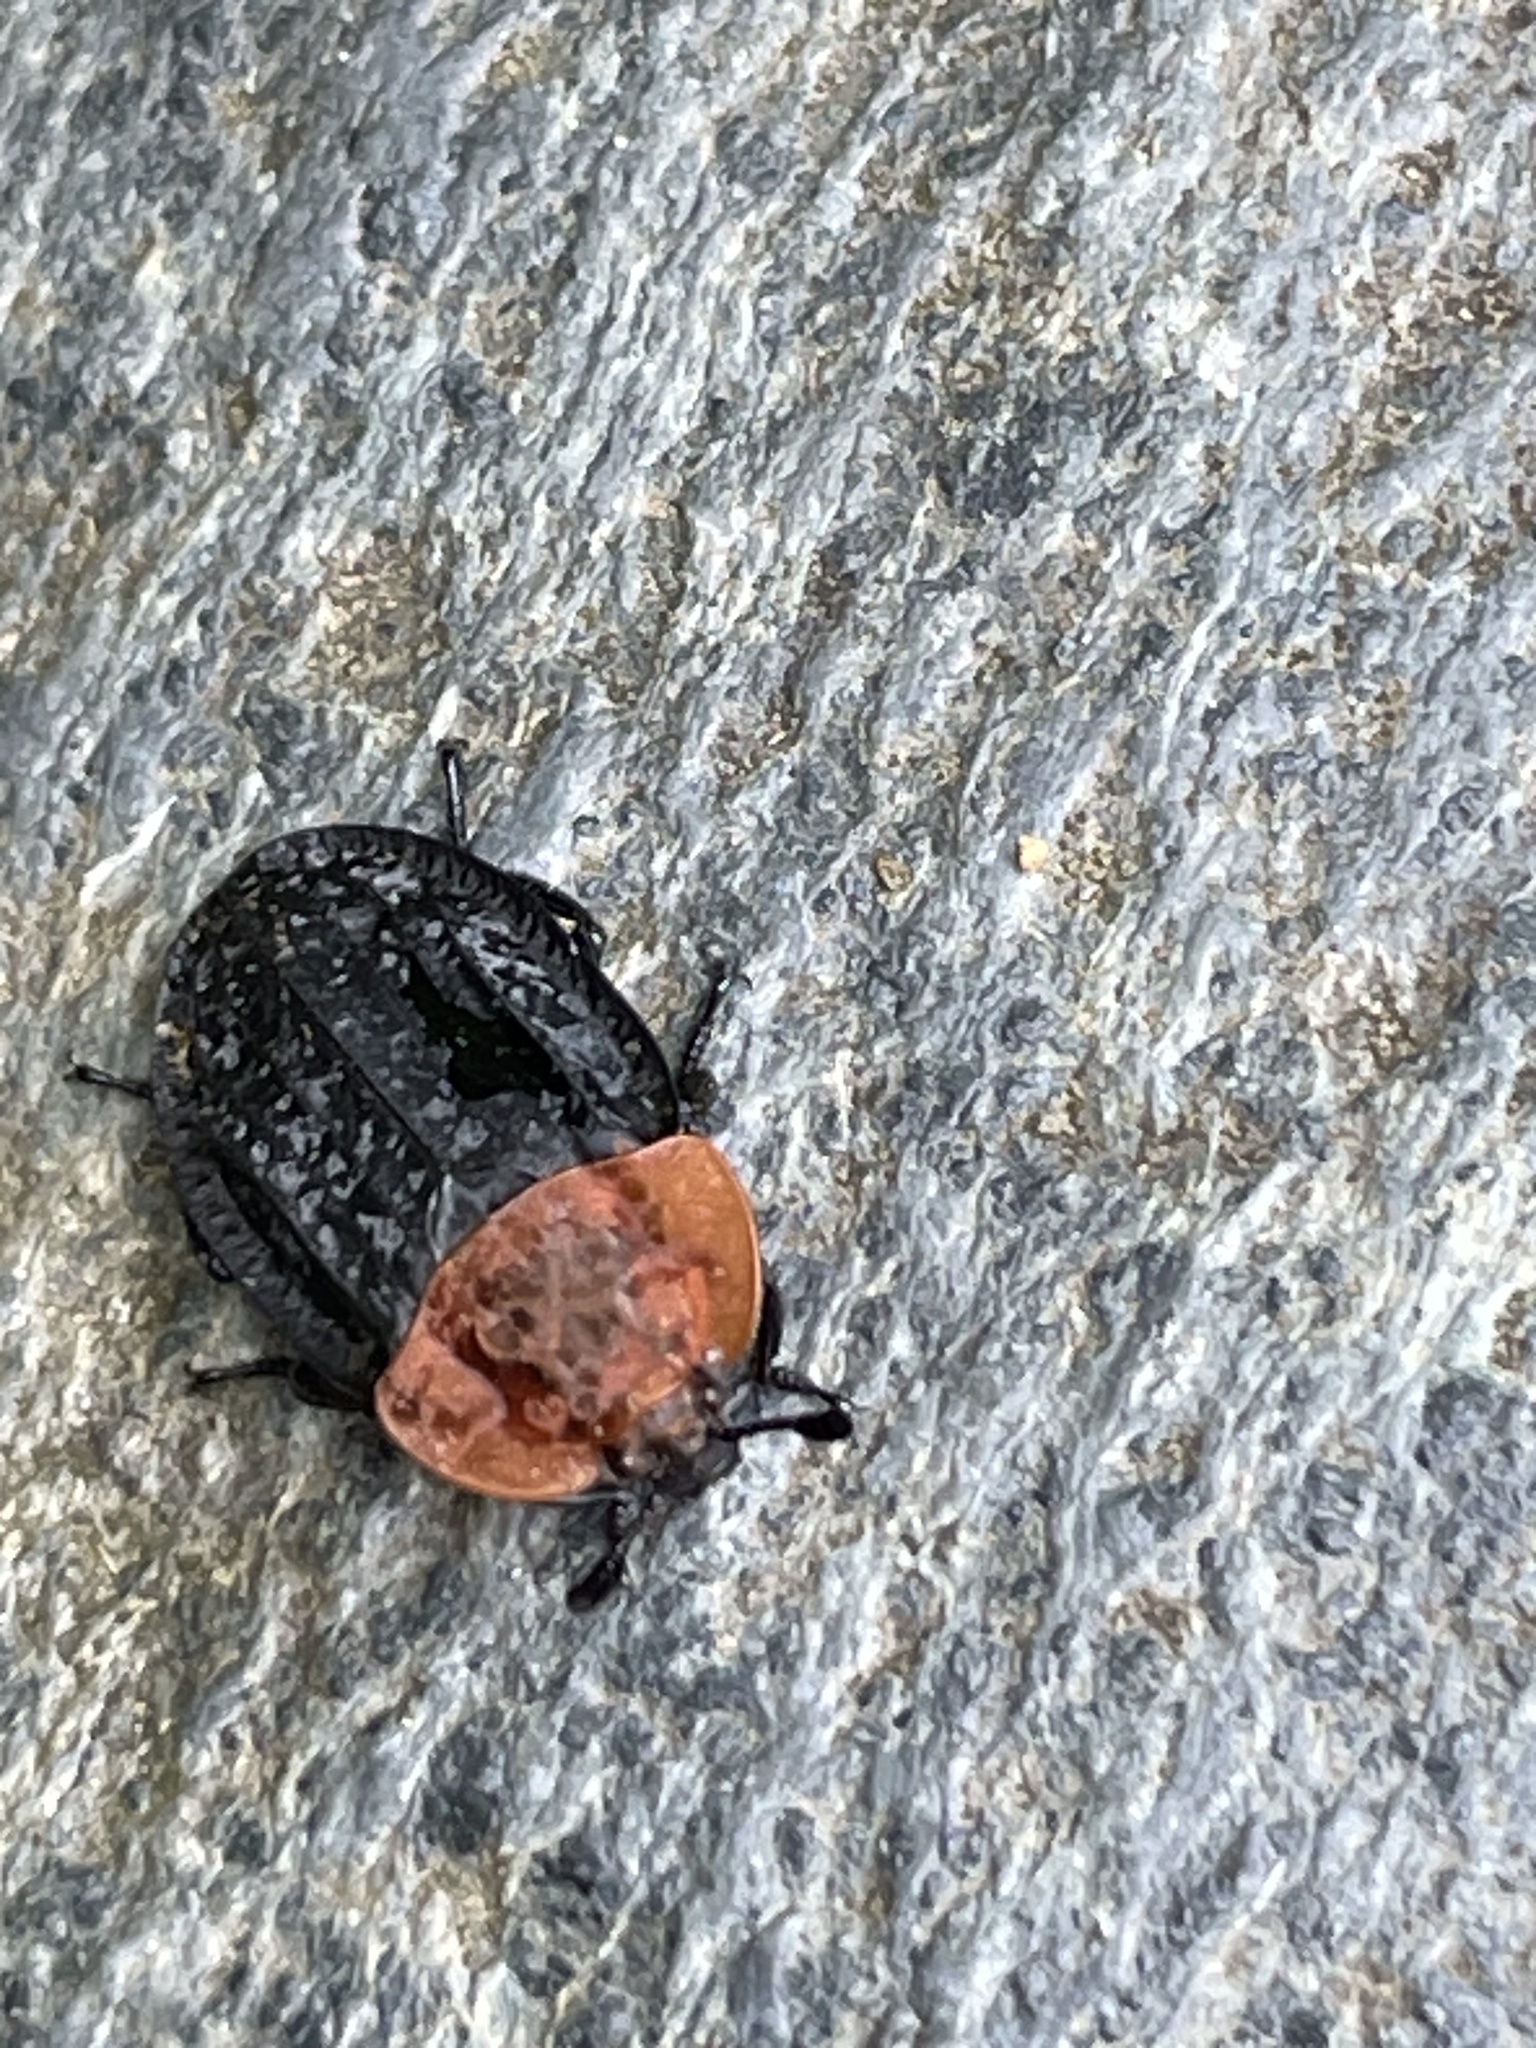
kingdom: Animalia
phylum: Arthropoda
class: Insecta
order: Coleoptera
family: Staphylinidae
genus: Oiceoptoma
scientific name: Oiceoptoma thoracicum
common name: Red-breasted carrion beetle
